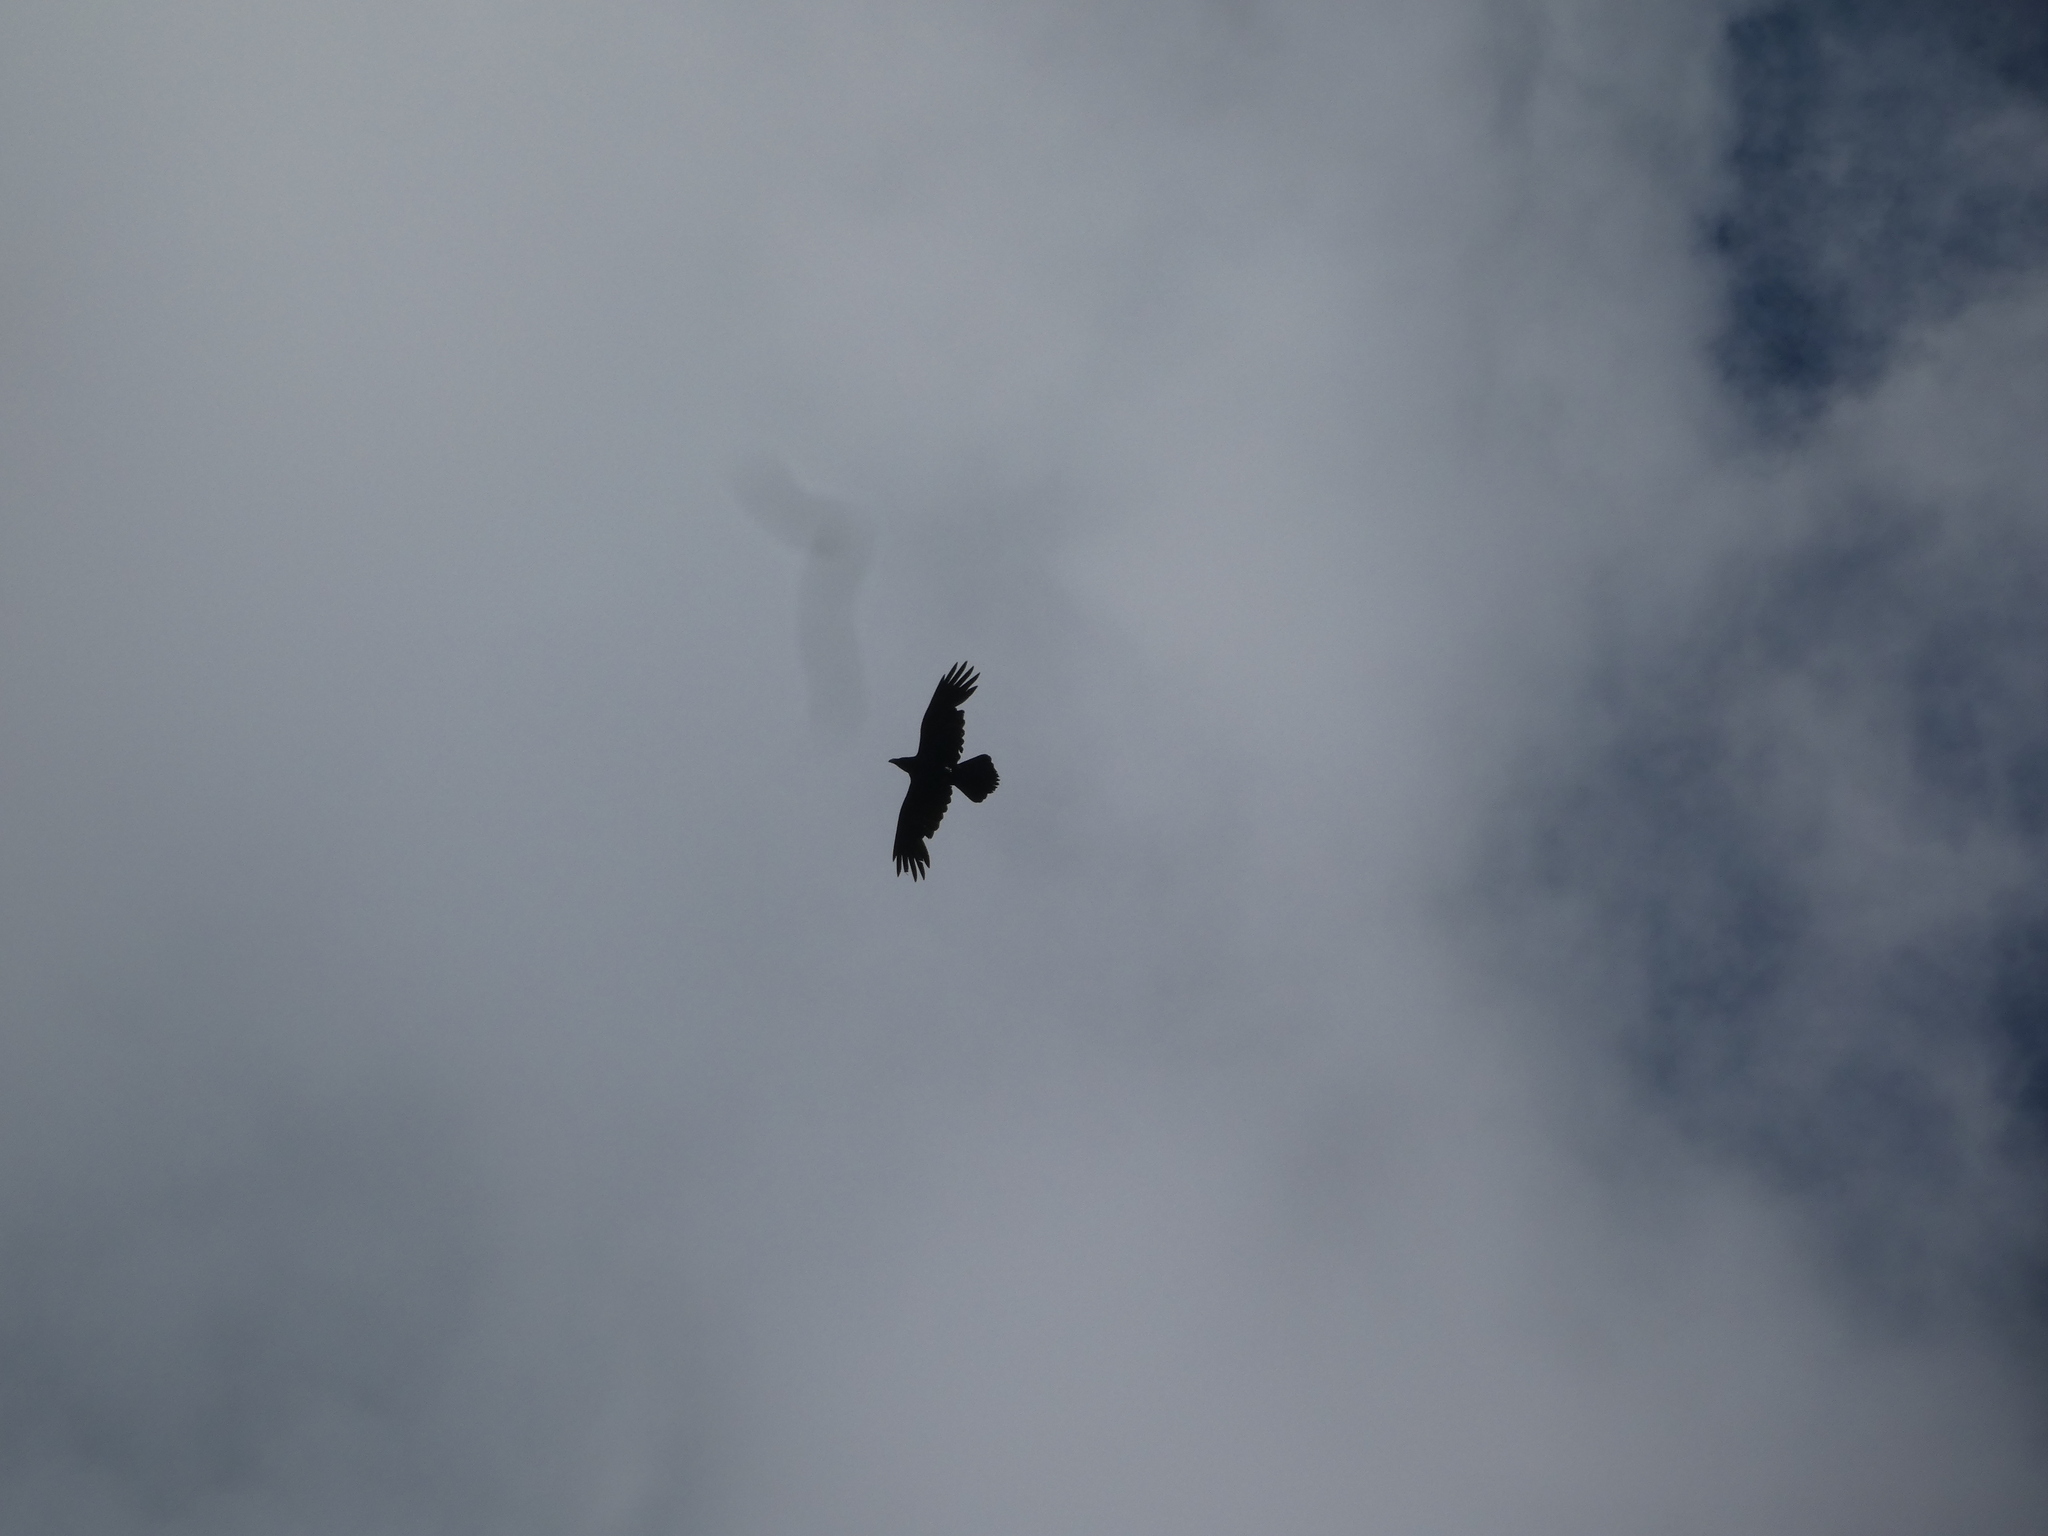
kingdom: Animalia
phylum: Chordata
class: Aves
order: Passeriformes
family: Corvidae
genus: Corvus
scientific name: Corvus corax
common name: Common raven
